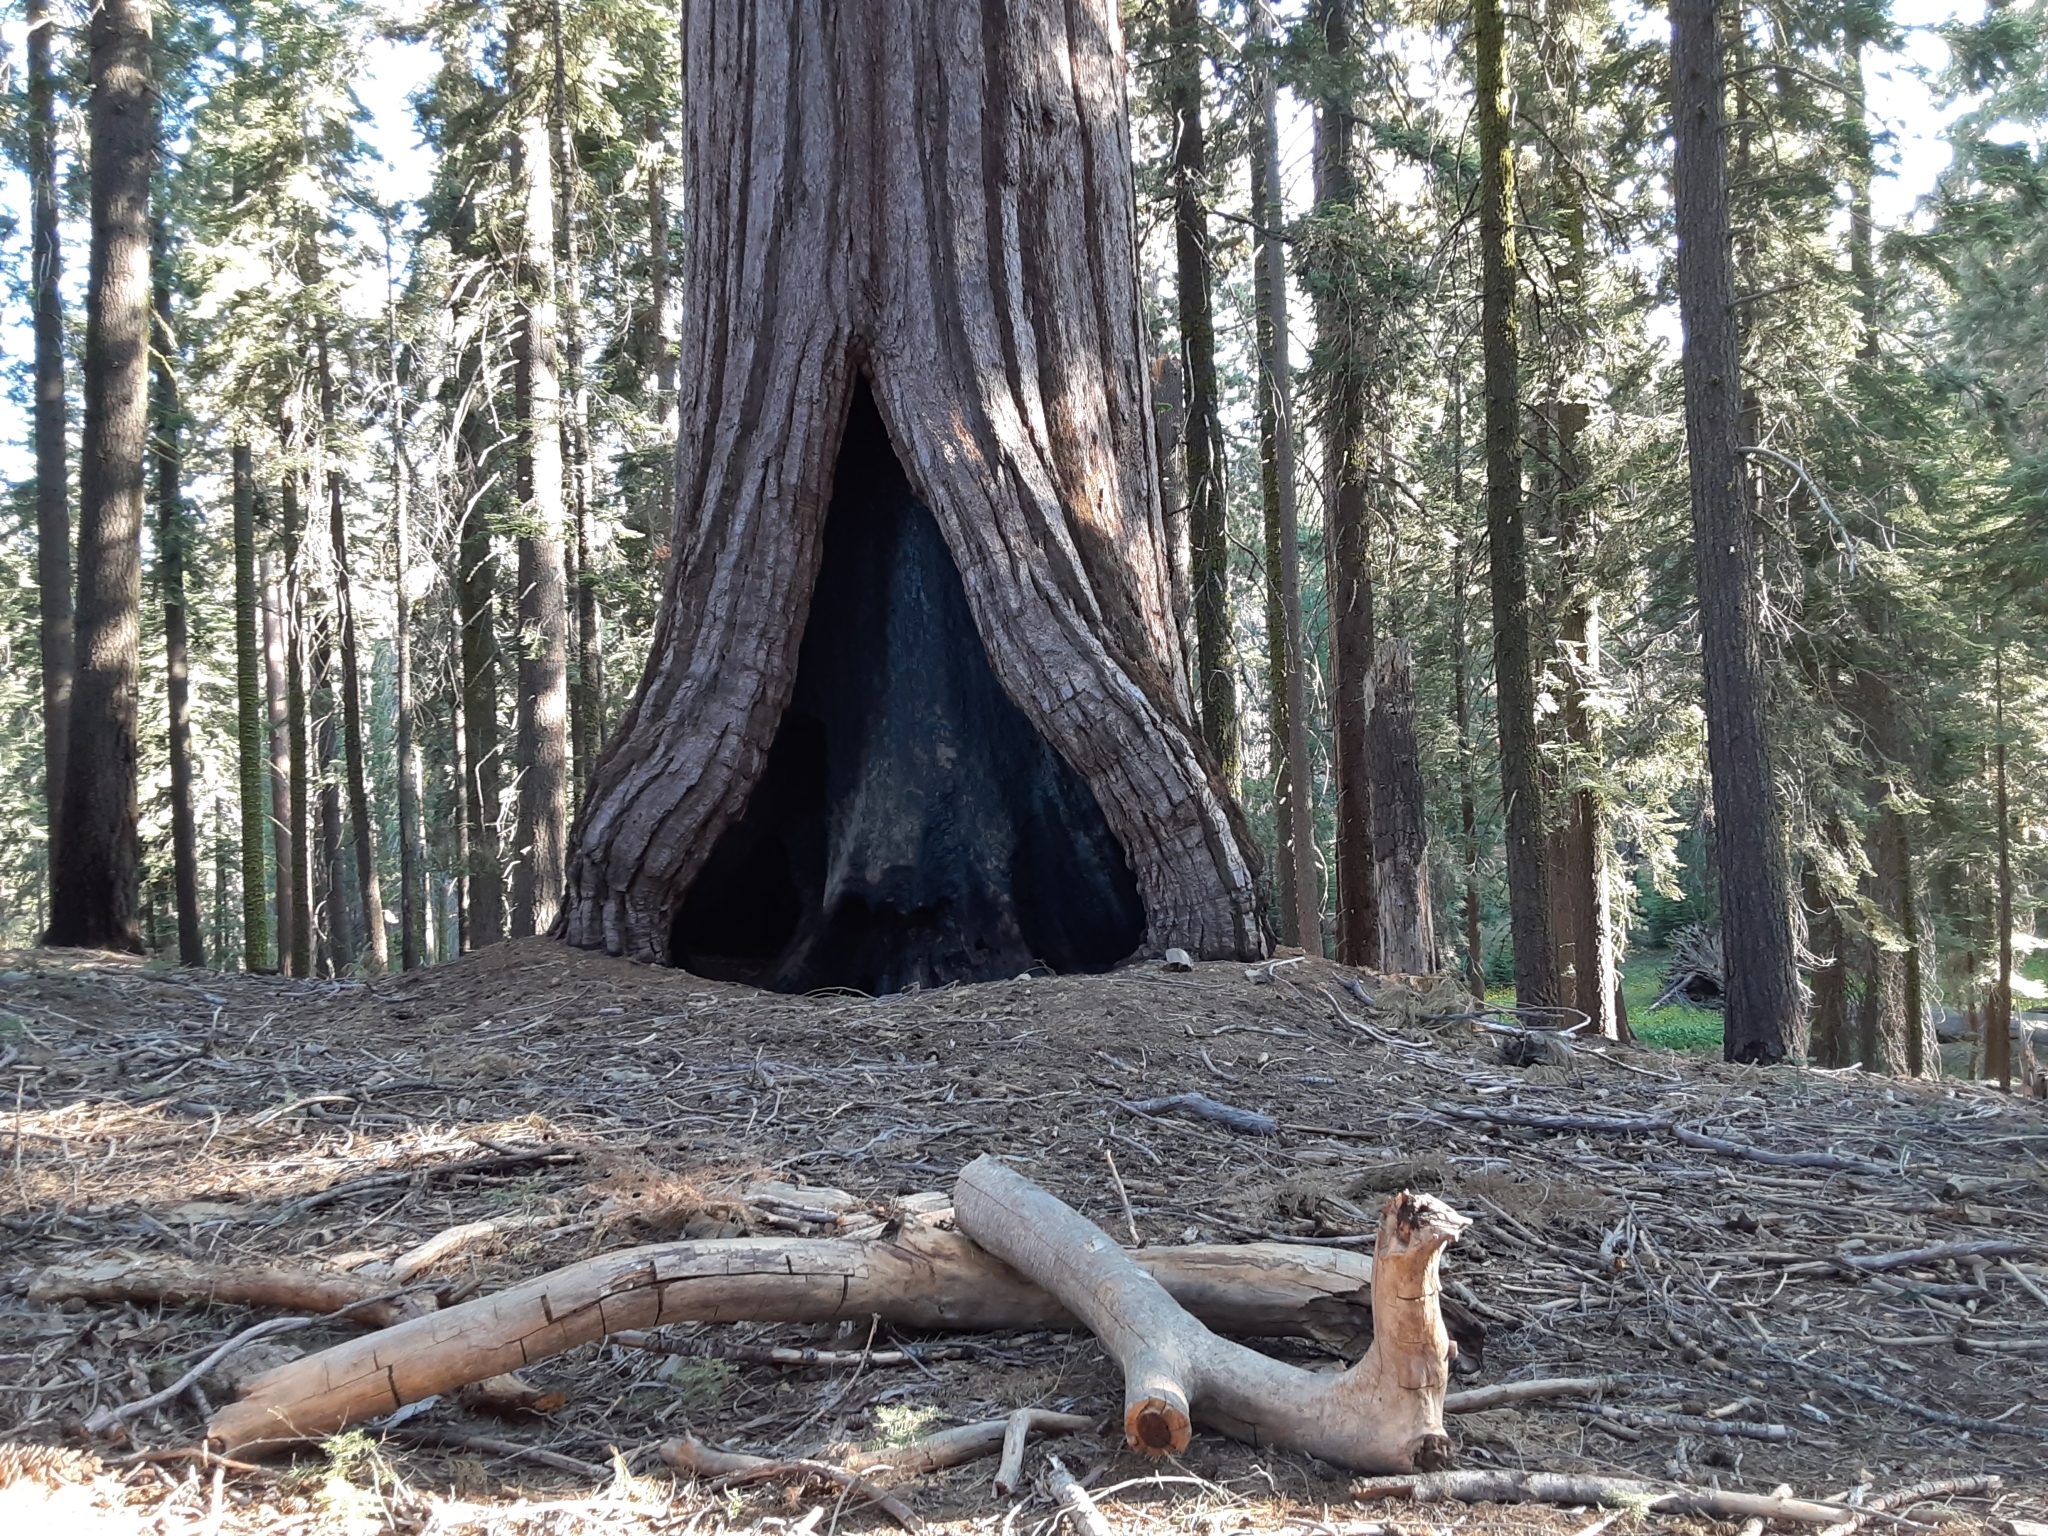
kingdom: Plantae
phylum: Tracheophyta
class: Pinopsida
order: Pinales
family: Cupressaceae
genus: Sequoiadendron
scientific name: Sequoiadendron giganteum
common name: Wellingtonia
